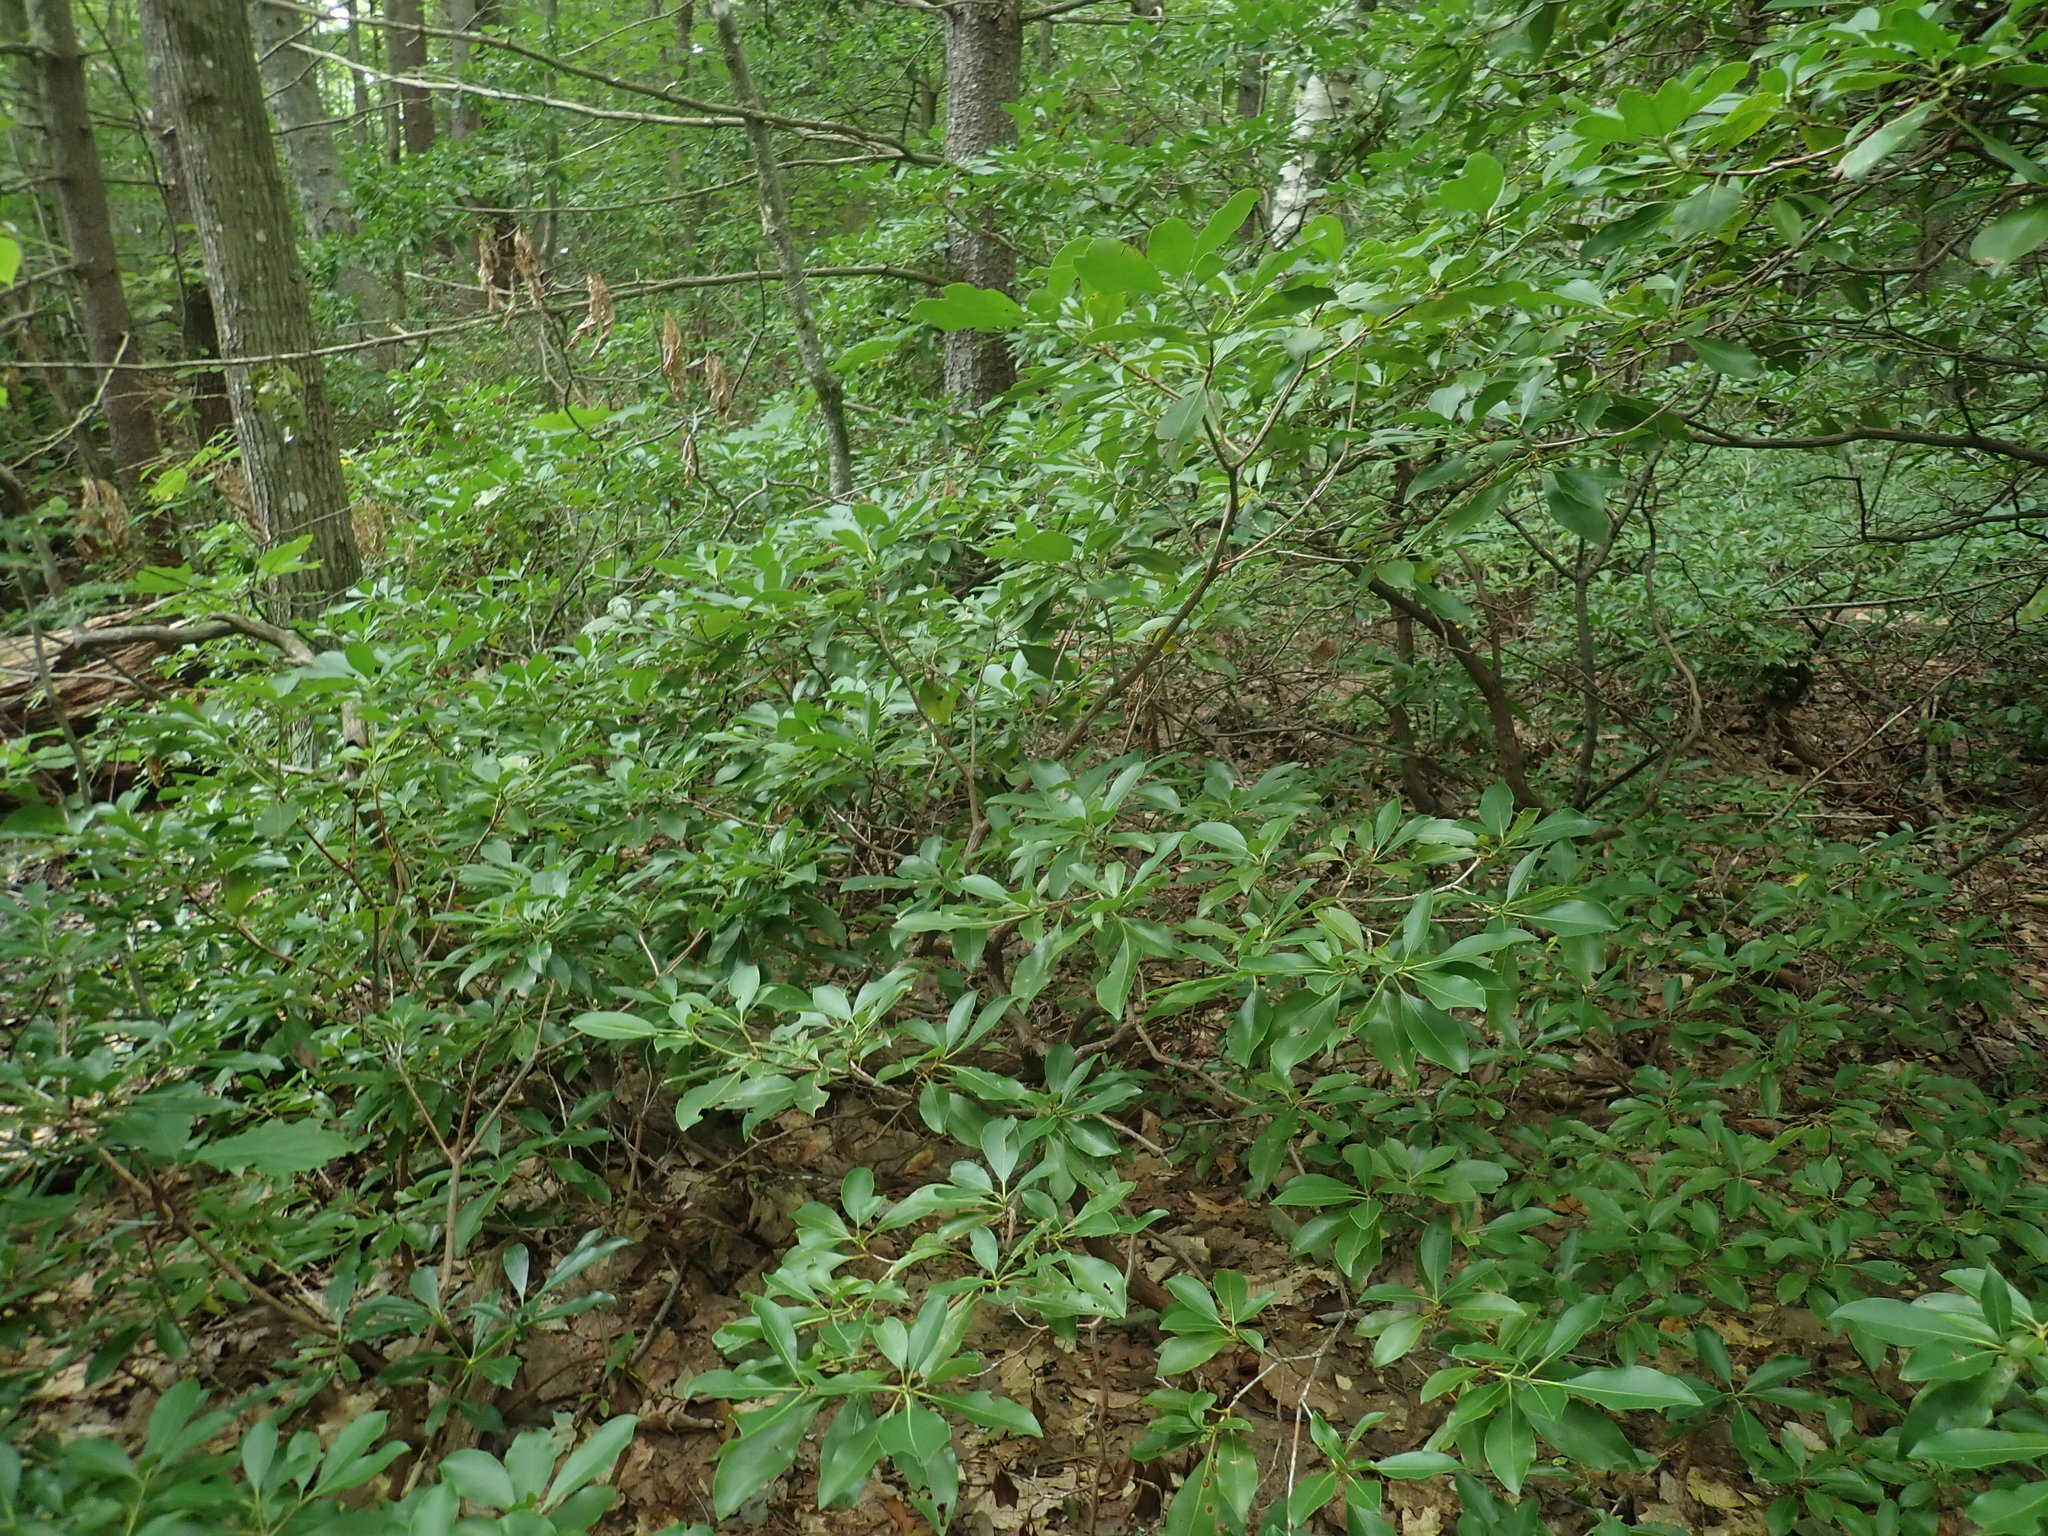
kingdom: Plantae
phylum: Tracheophyta
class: Magnoliopsida
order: Ericales
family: Ericaceae
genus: Kalmia
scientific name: Kalmia latifolia
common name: Mountain-laurel
